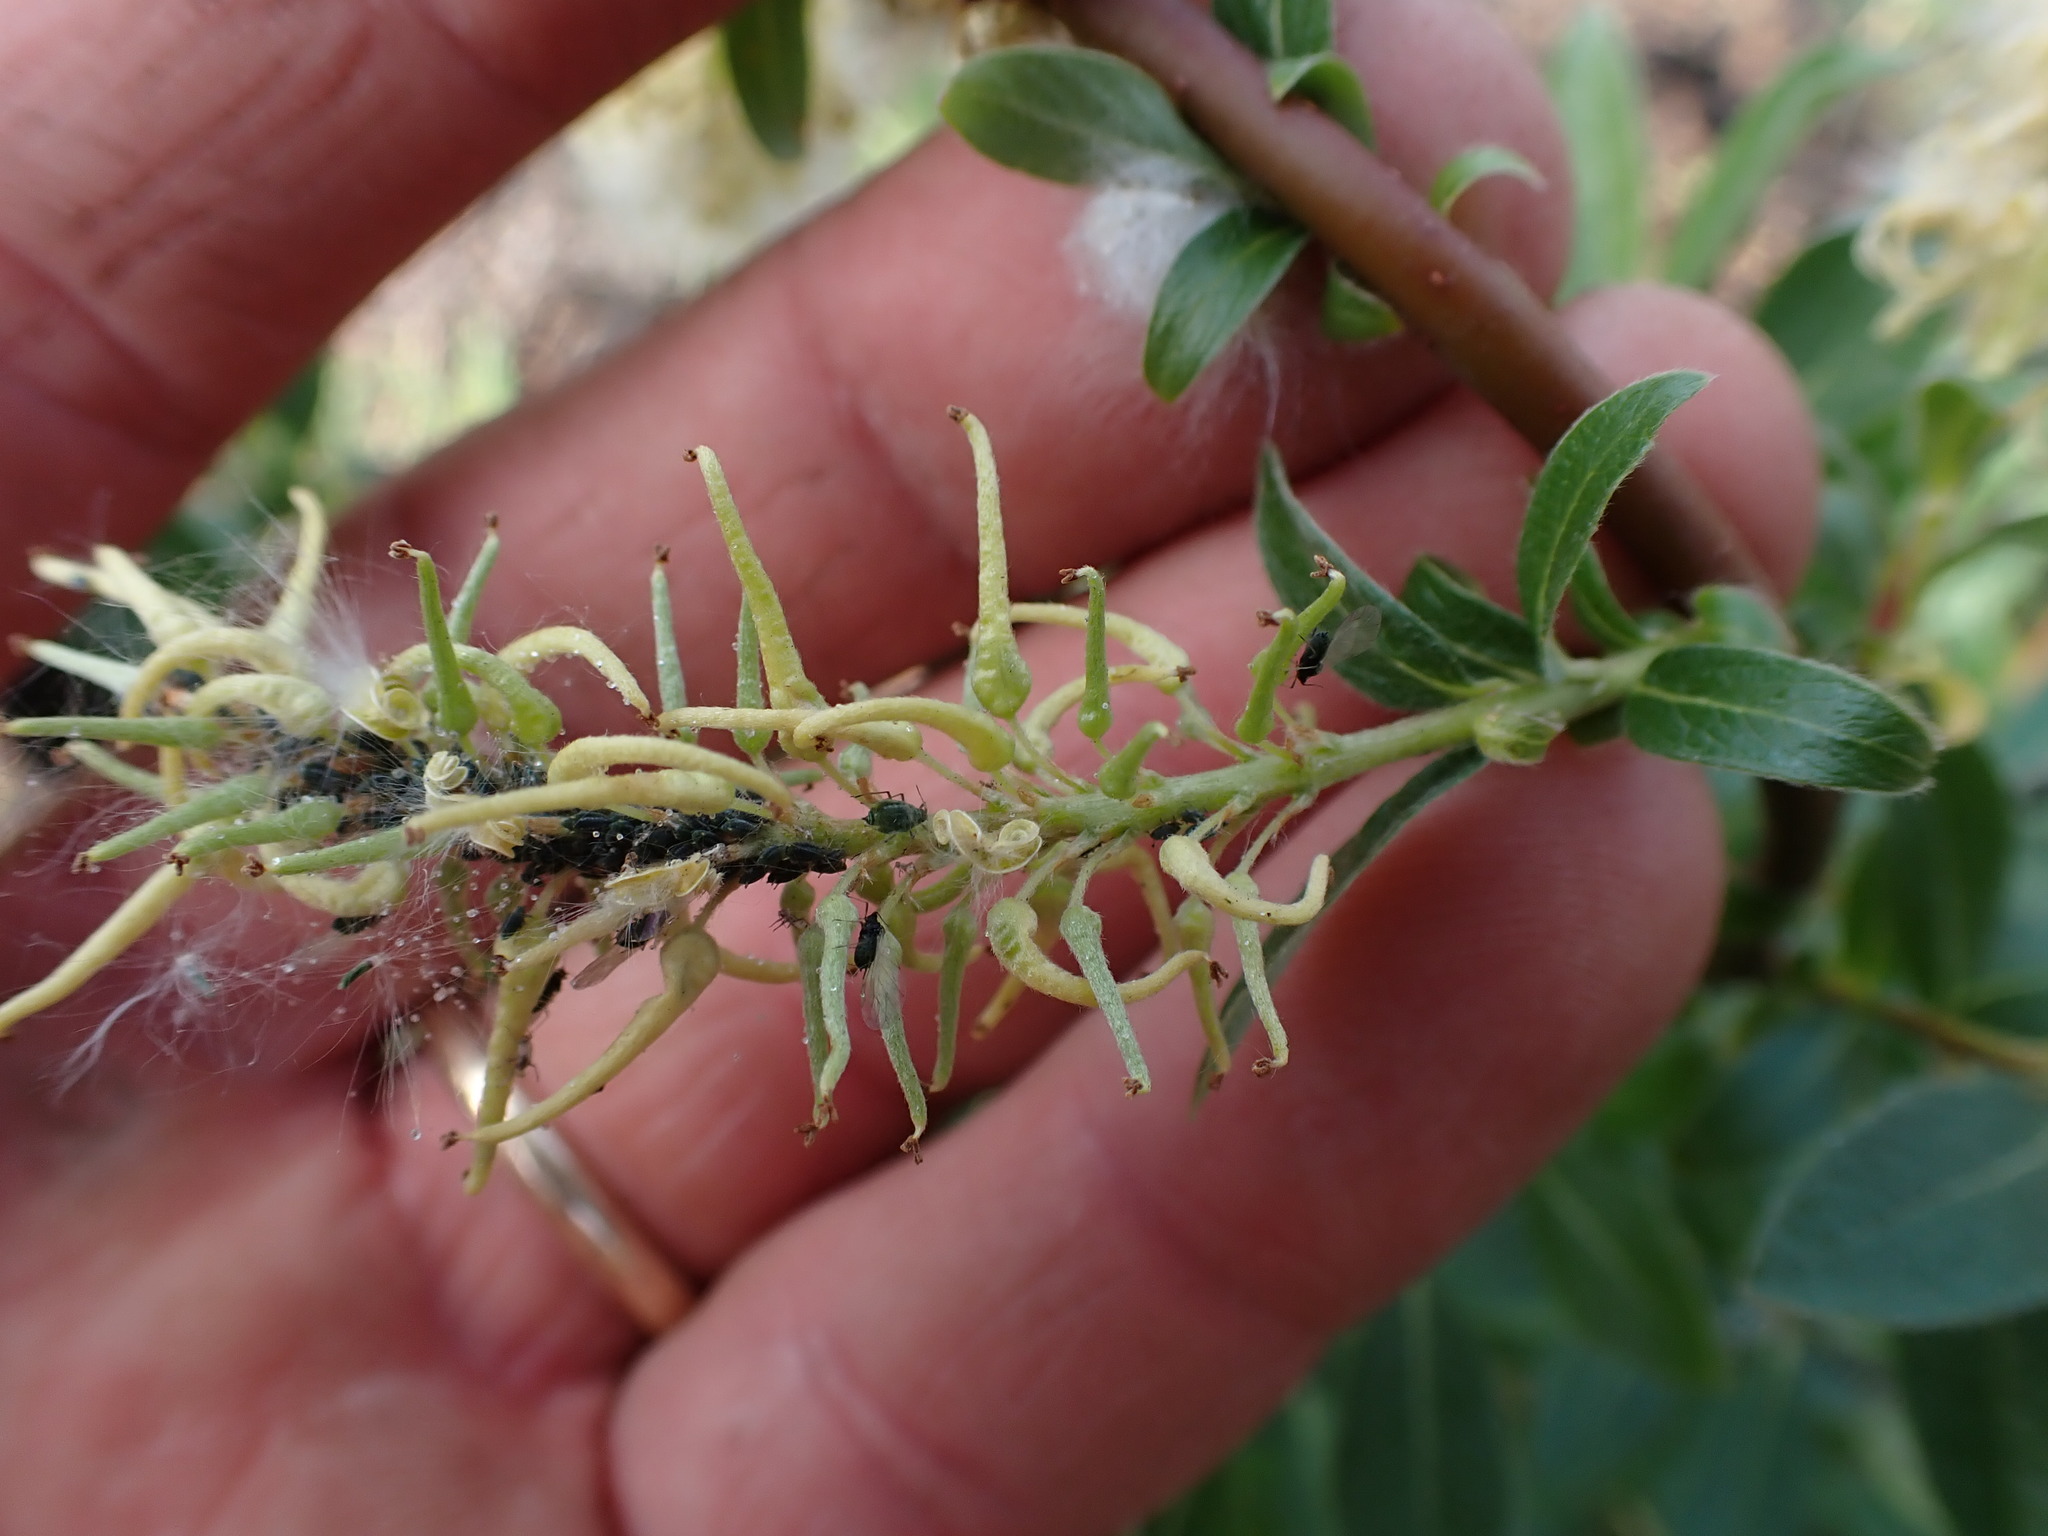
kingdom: Plantae
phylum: Tracheophyta
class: Magnoliopsida
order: Malpighiales
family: Salicaceae
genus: Salix
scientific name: Salix bebbiana
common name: Bebb's willow
